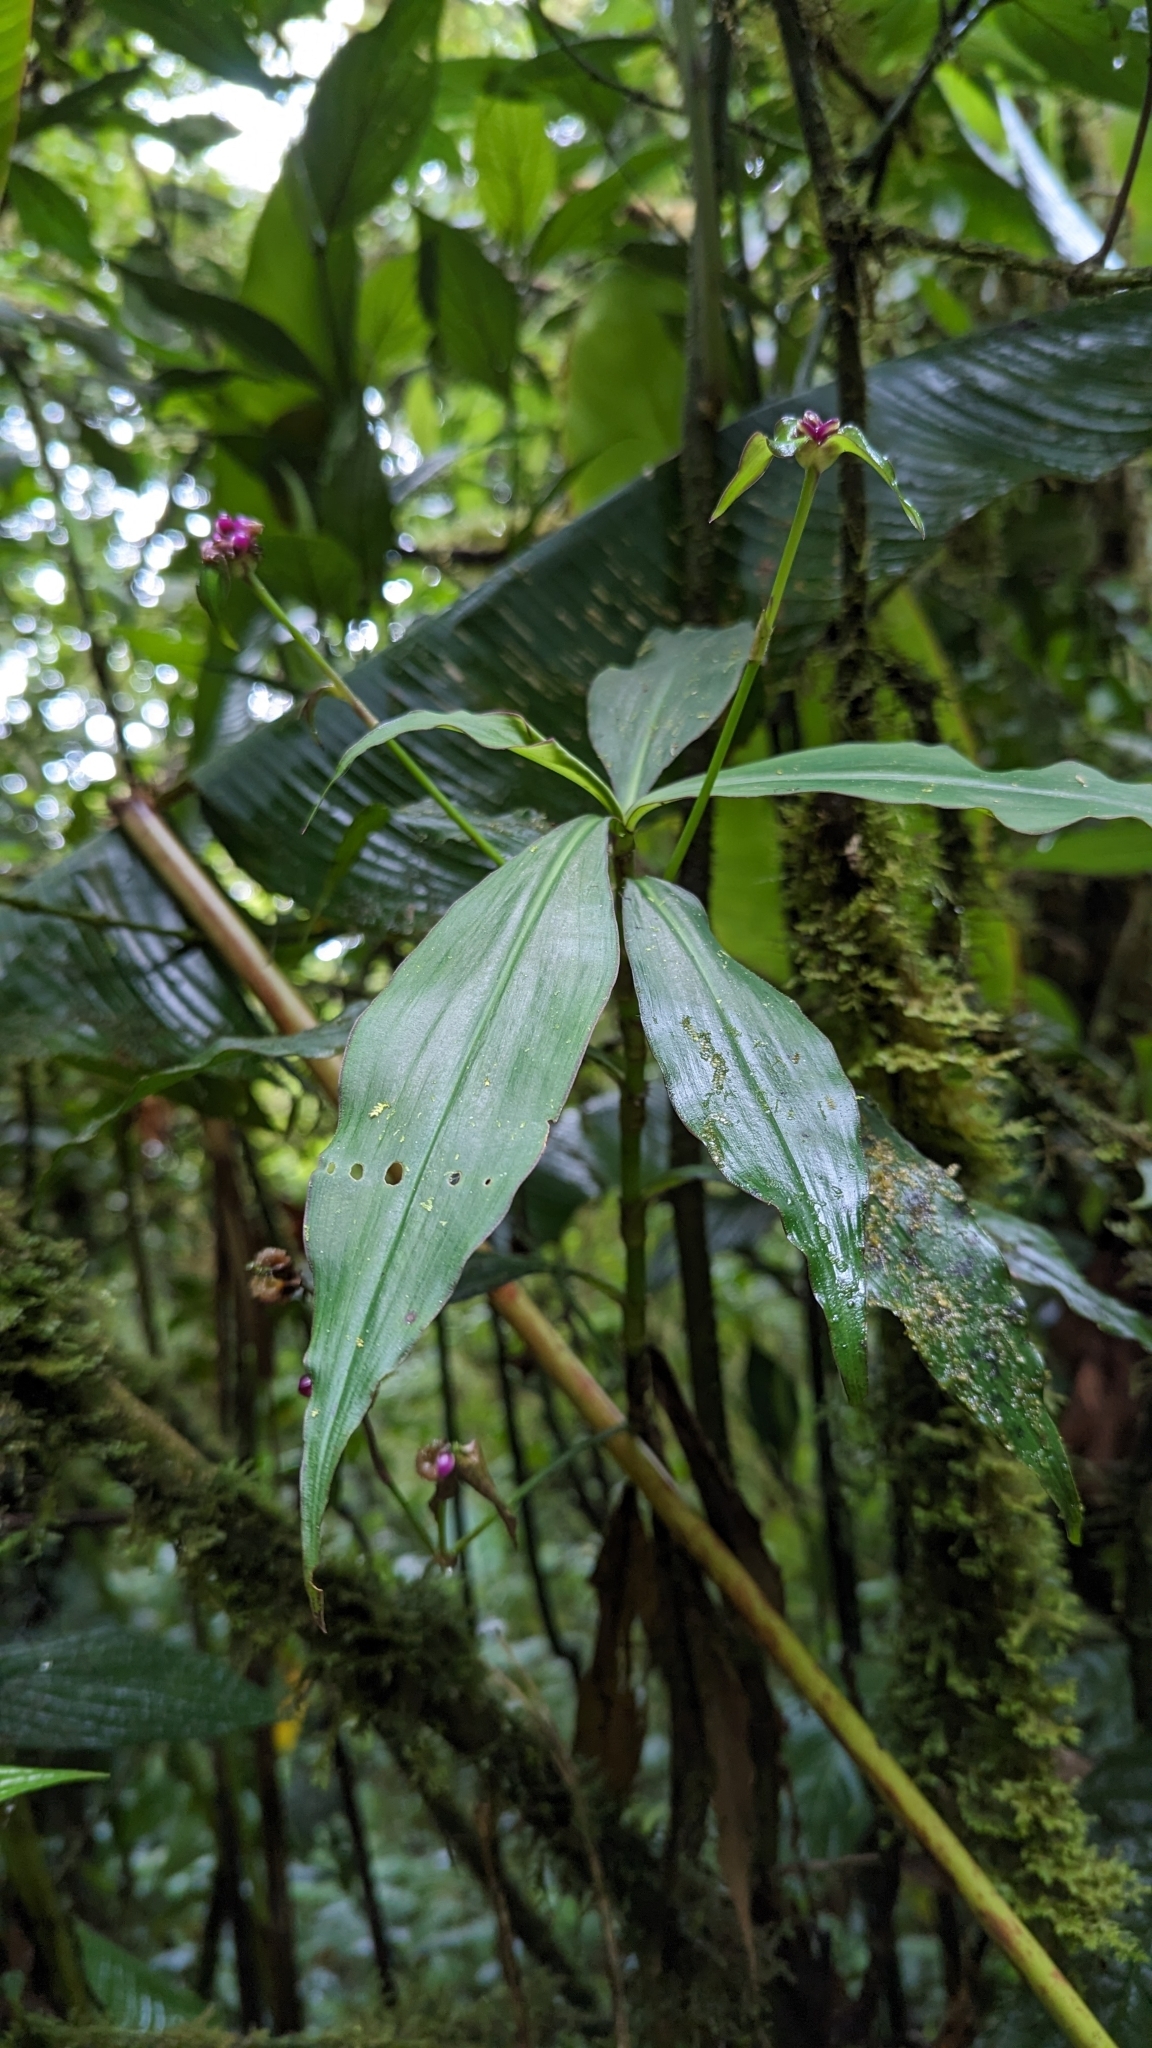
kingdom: Plantae
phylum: Tracheophyta
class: Liliopsida
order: Commelinales
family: Commelinaceae
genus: Tradescantia
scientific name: Tradescantia zanonia
